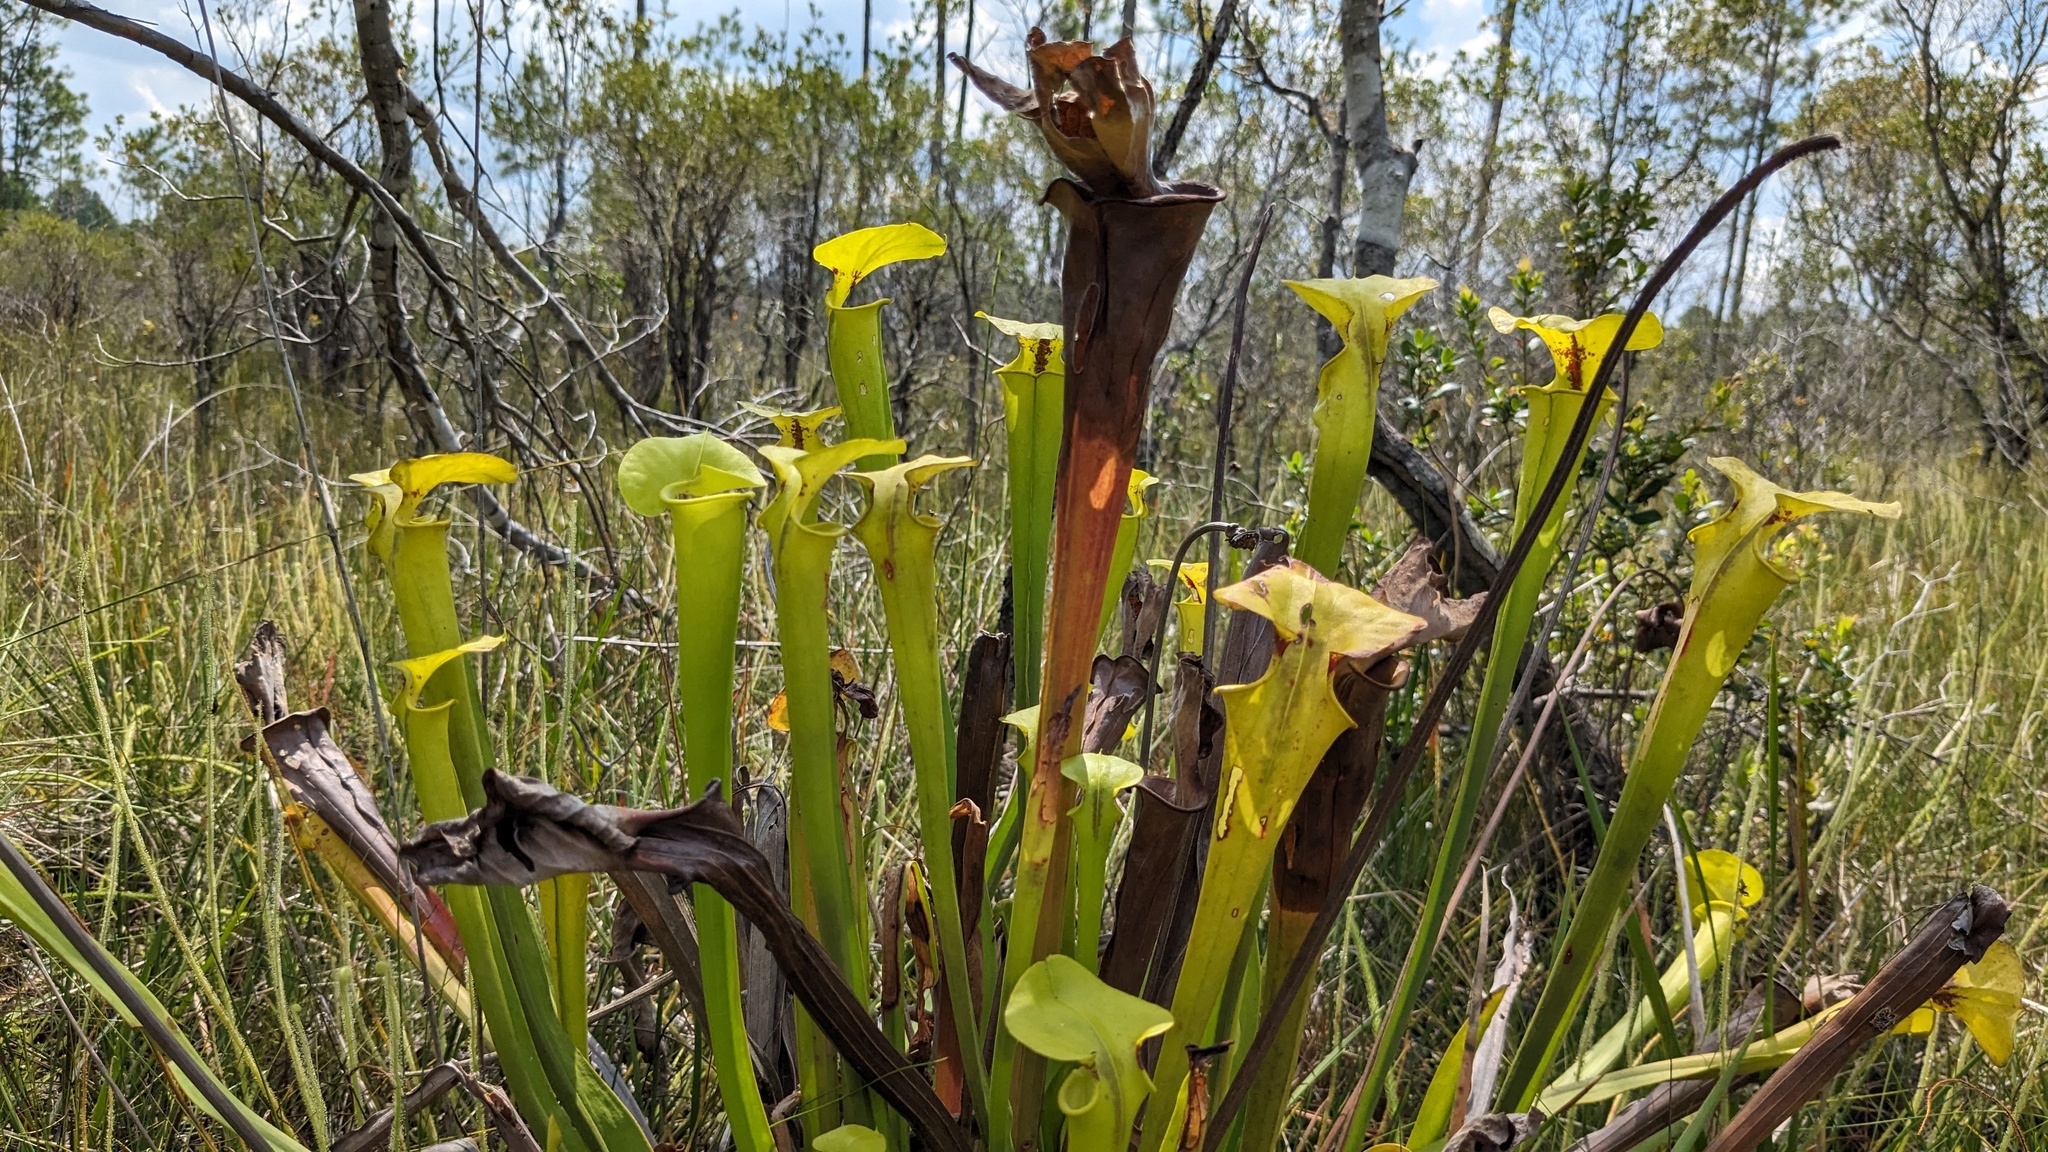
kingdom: Plantae
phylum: Tracheophyta
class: Magnoliopsida
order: Ericales
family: Sarraceniaceae
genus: Sarracenia
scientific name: Sarracenia flava
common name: Trumpets
